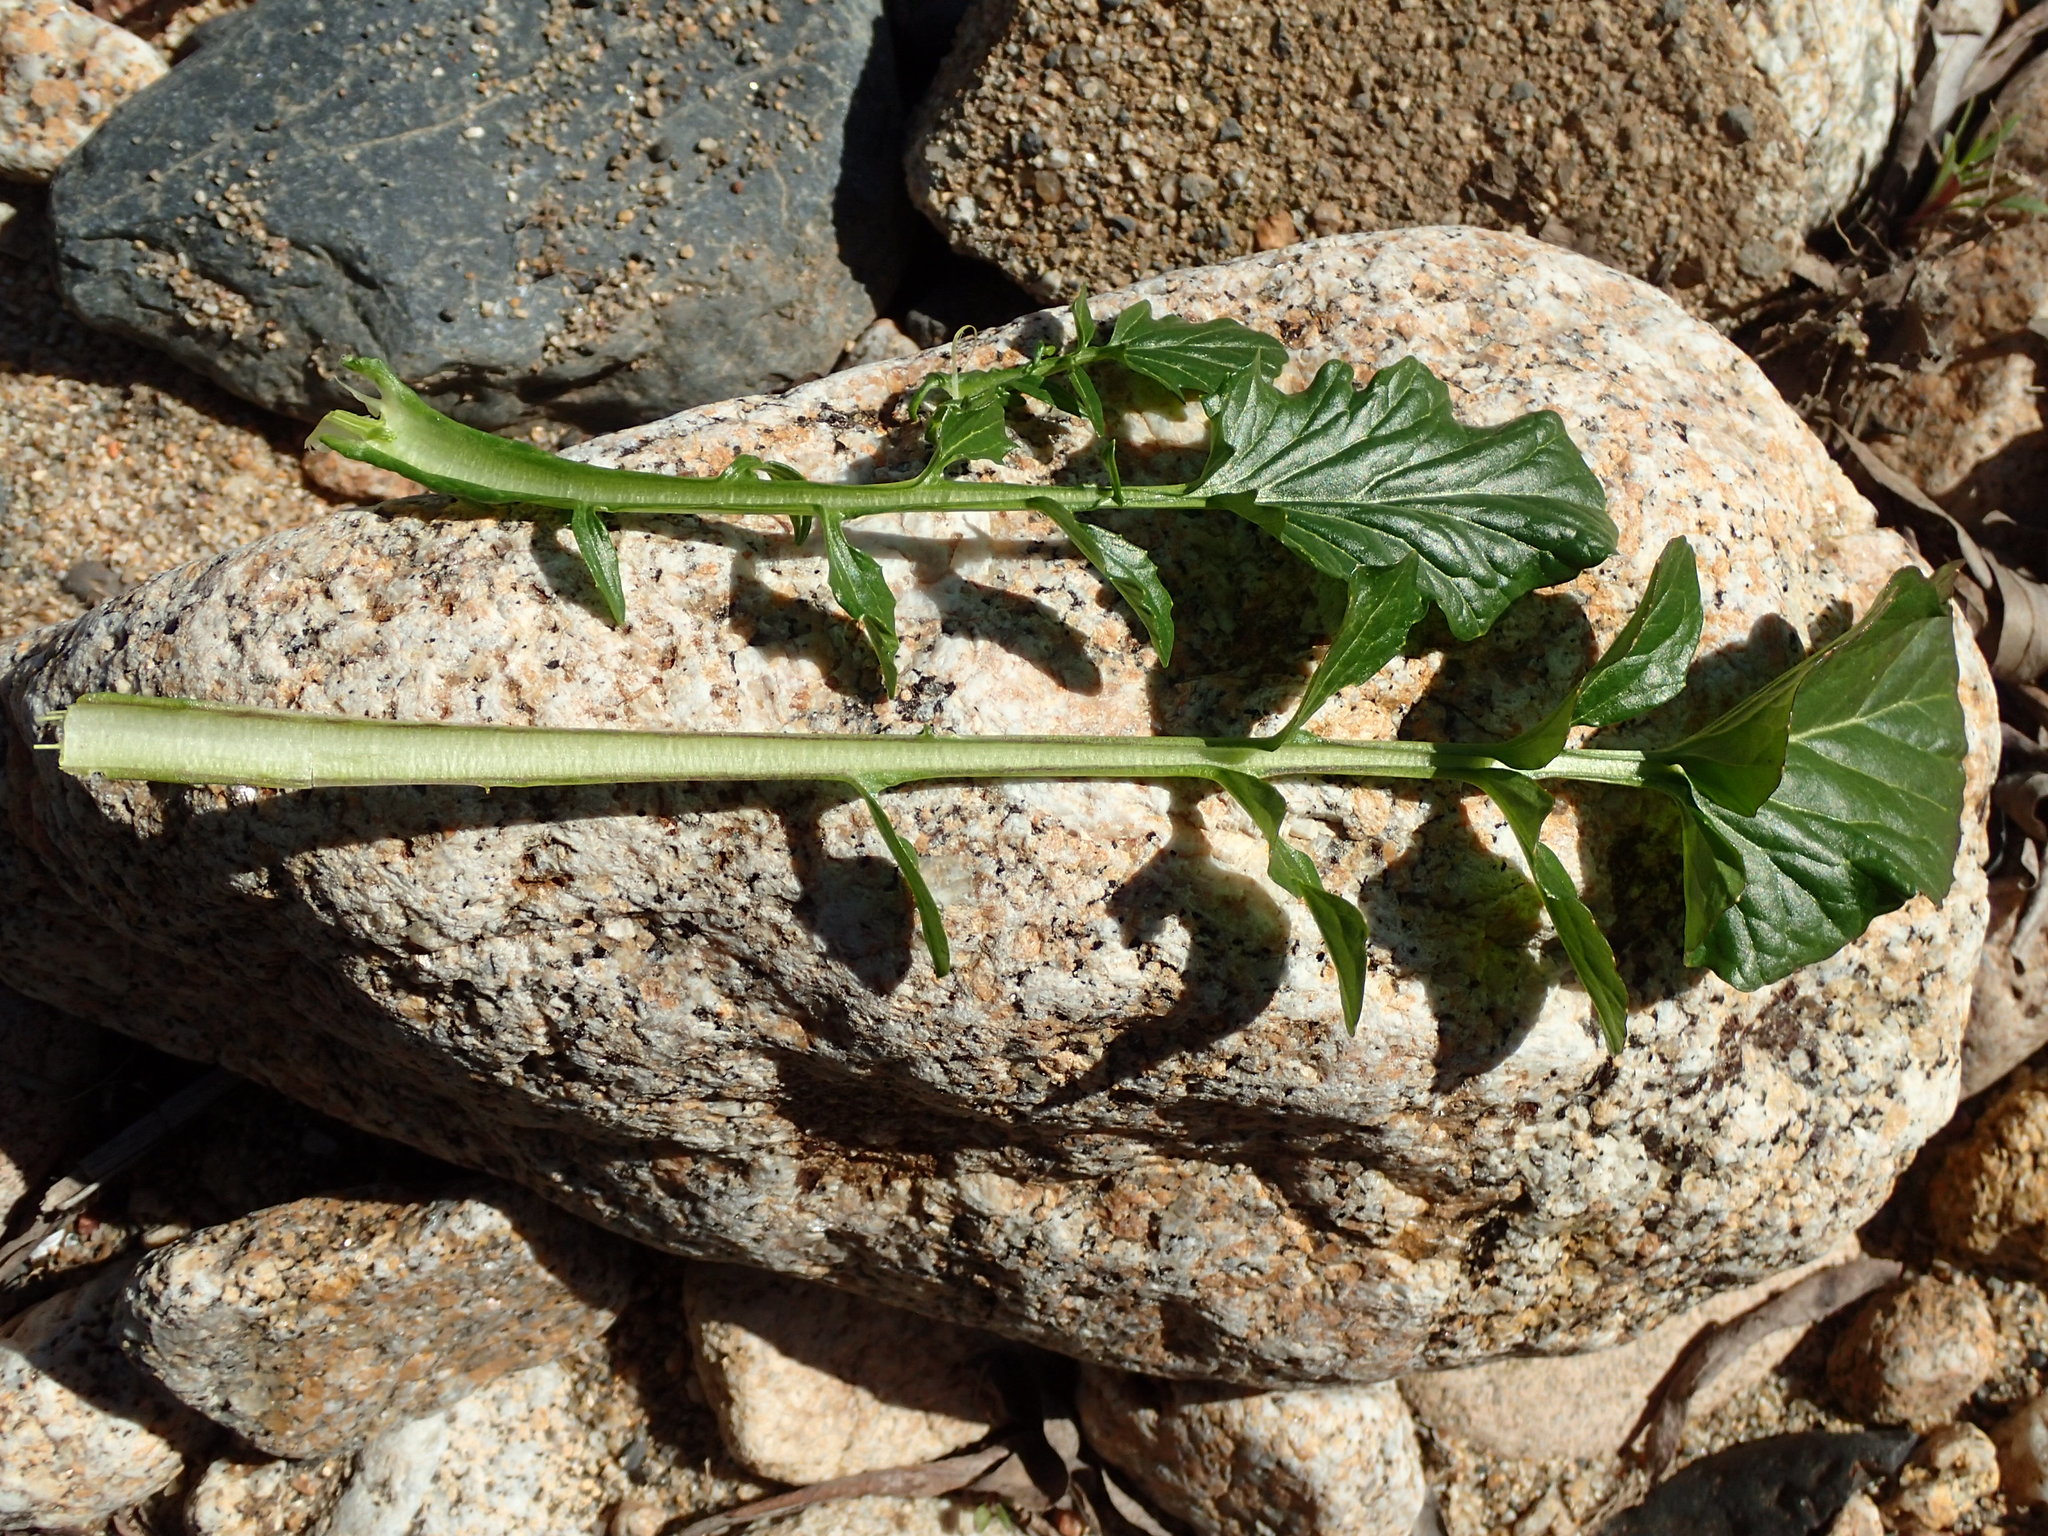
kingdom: Plantae
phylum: Tracheophyta
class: Magnoliopsida
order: Brassicales
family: Brassicaceae
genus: Barbarea
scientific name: Barbarea vulgaris
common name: Cressy-greens
